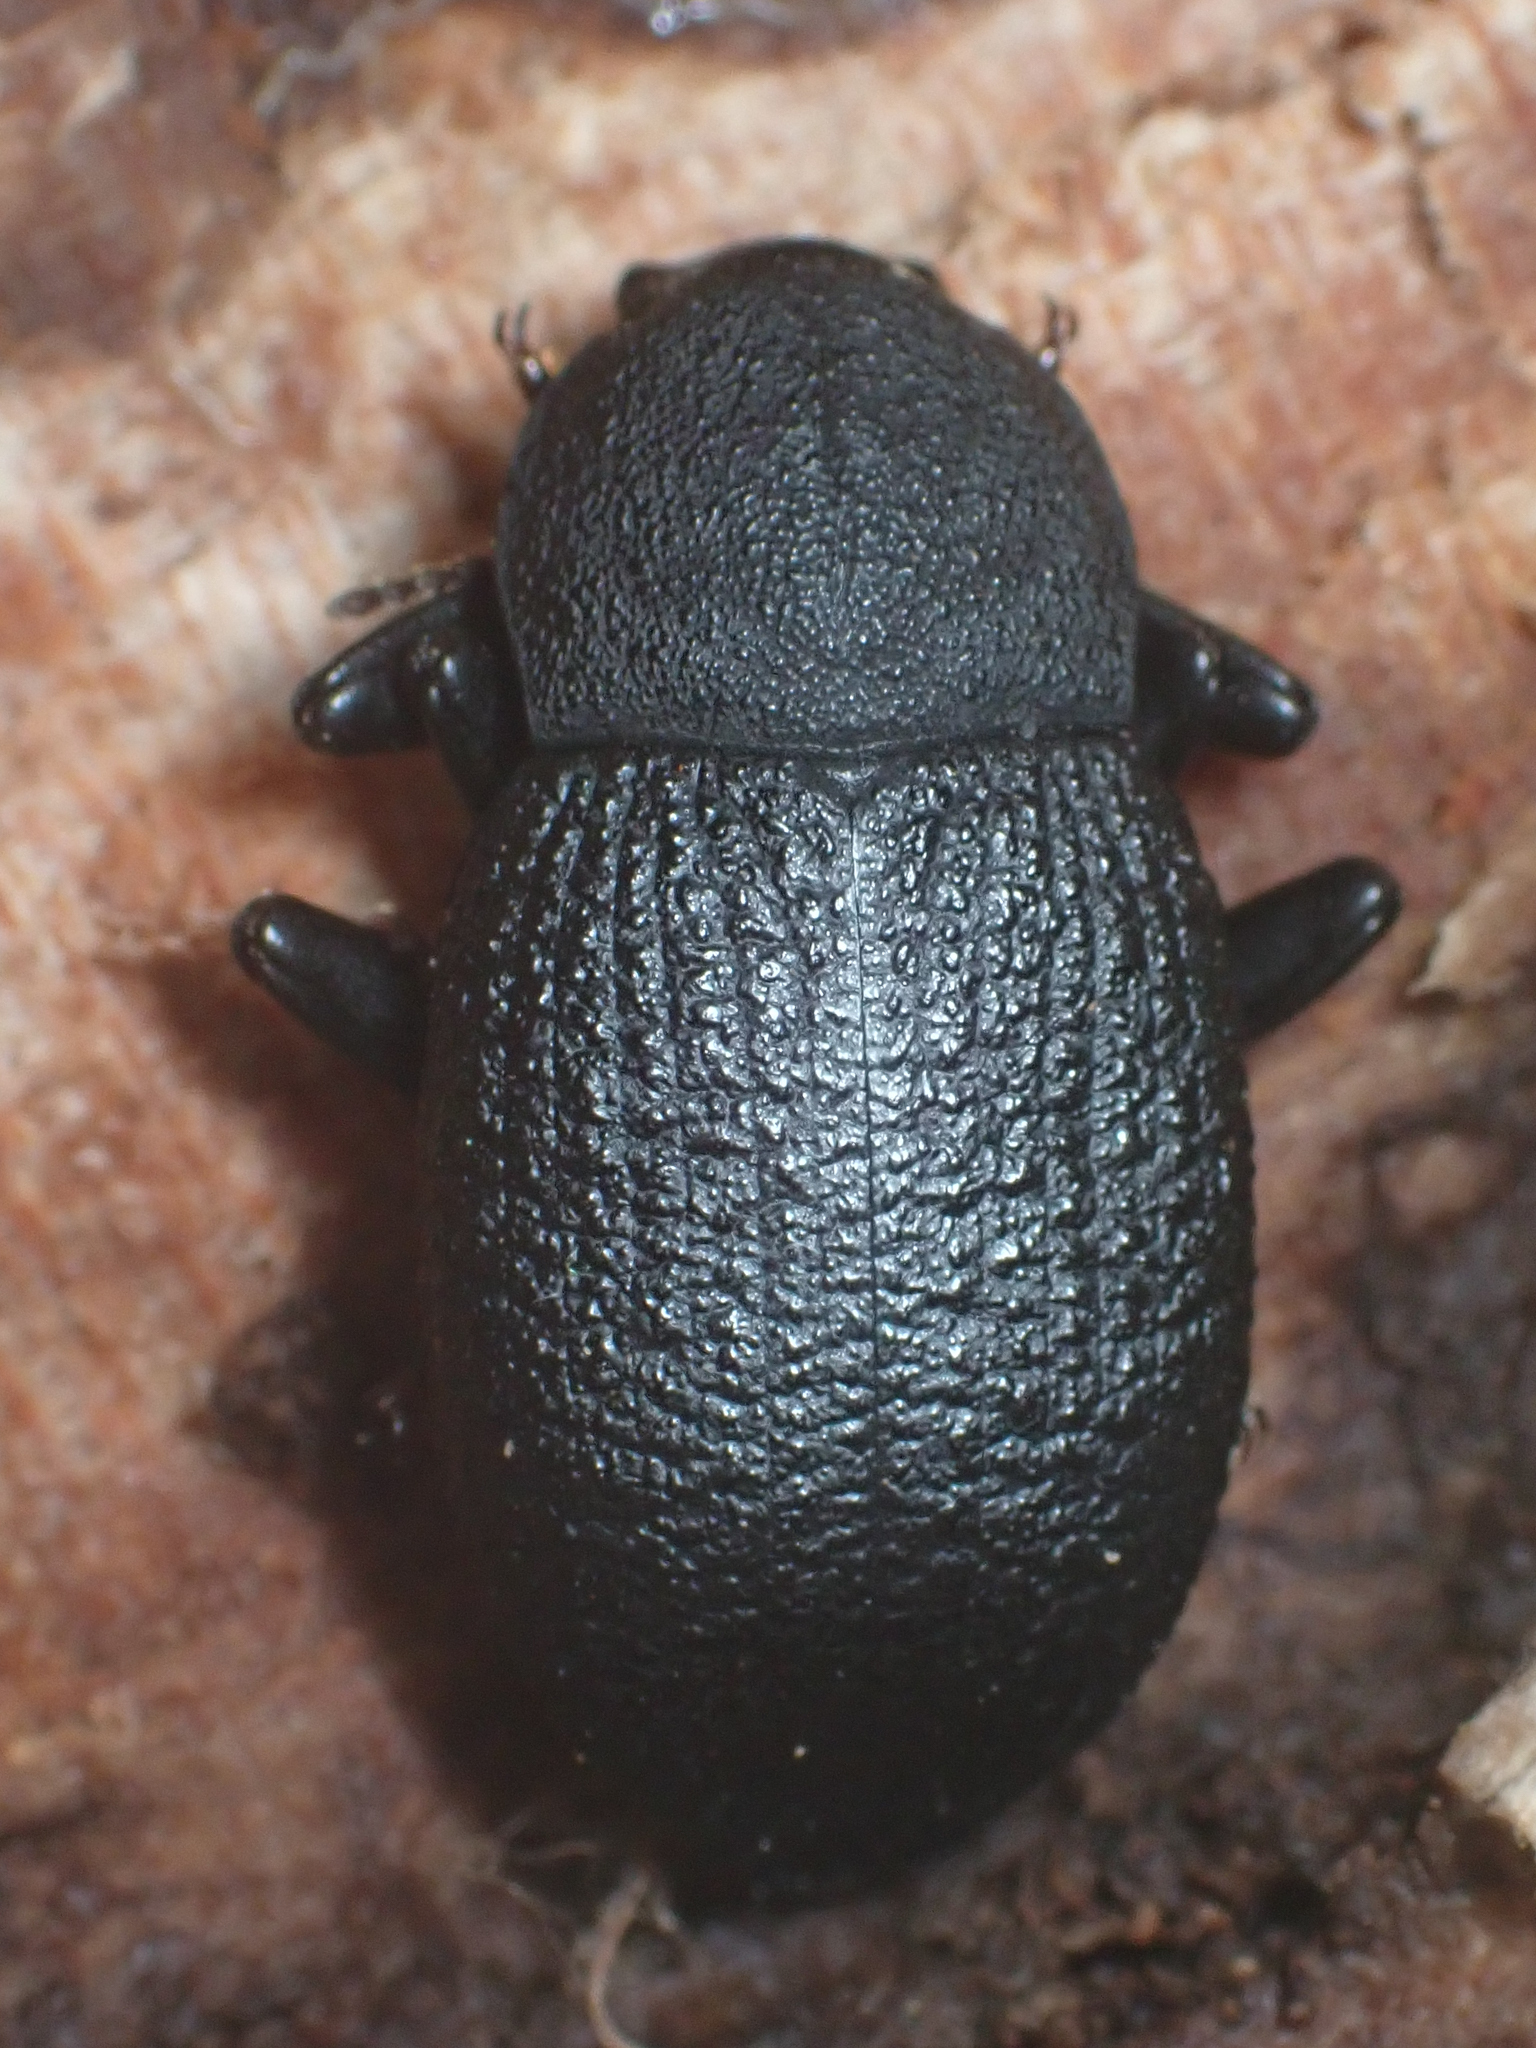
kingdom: Animalia
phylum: Arthropoda
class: Insecta
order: Coleoptera
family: Tenebrionidae
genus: Cibdelis
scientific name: Cibdelis bachei
